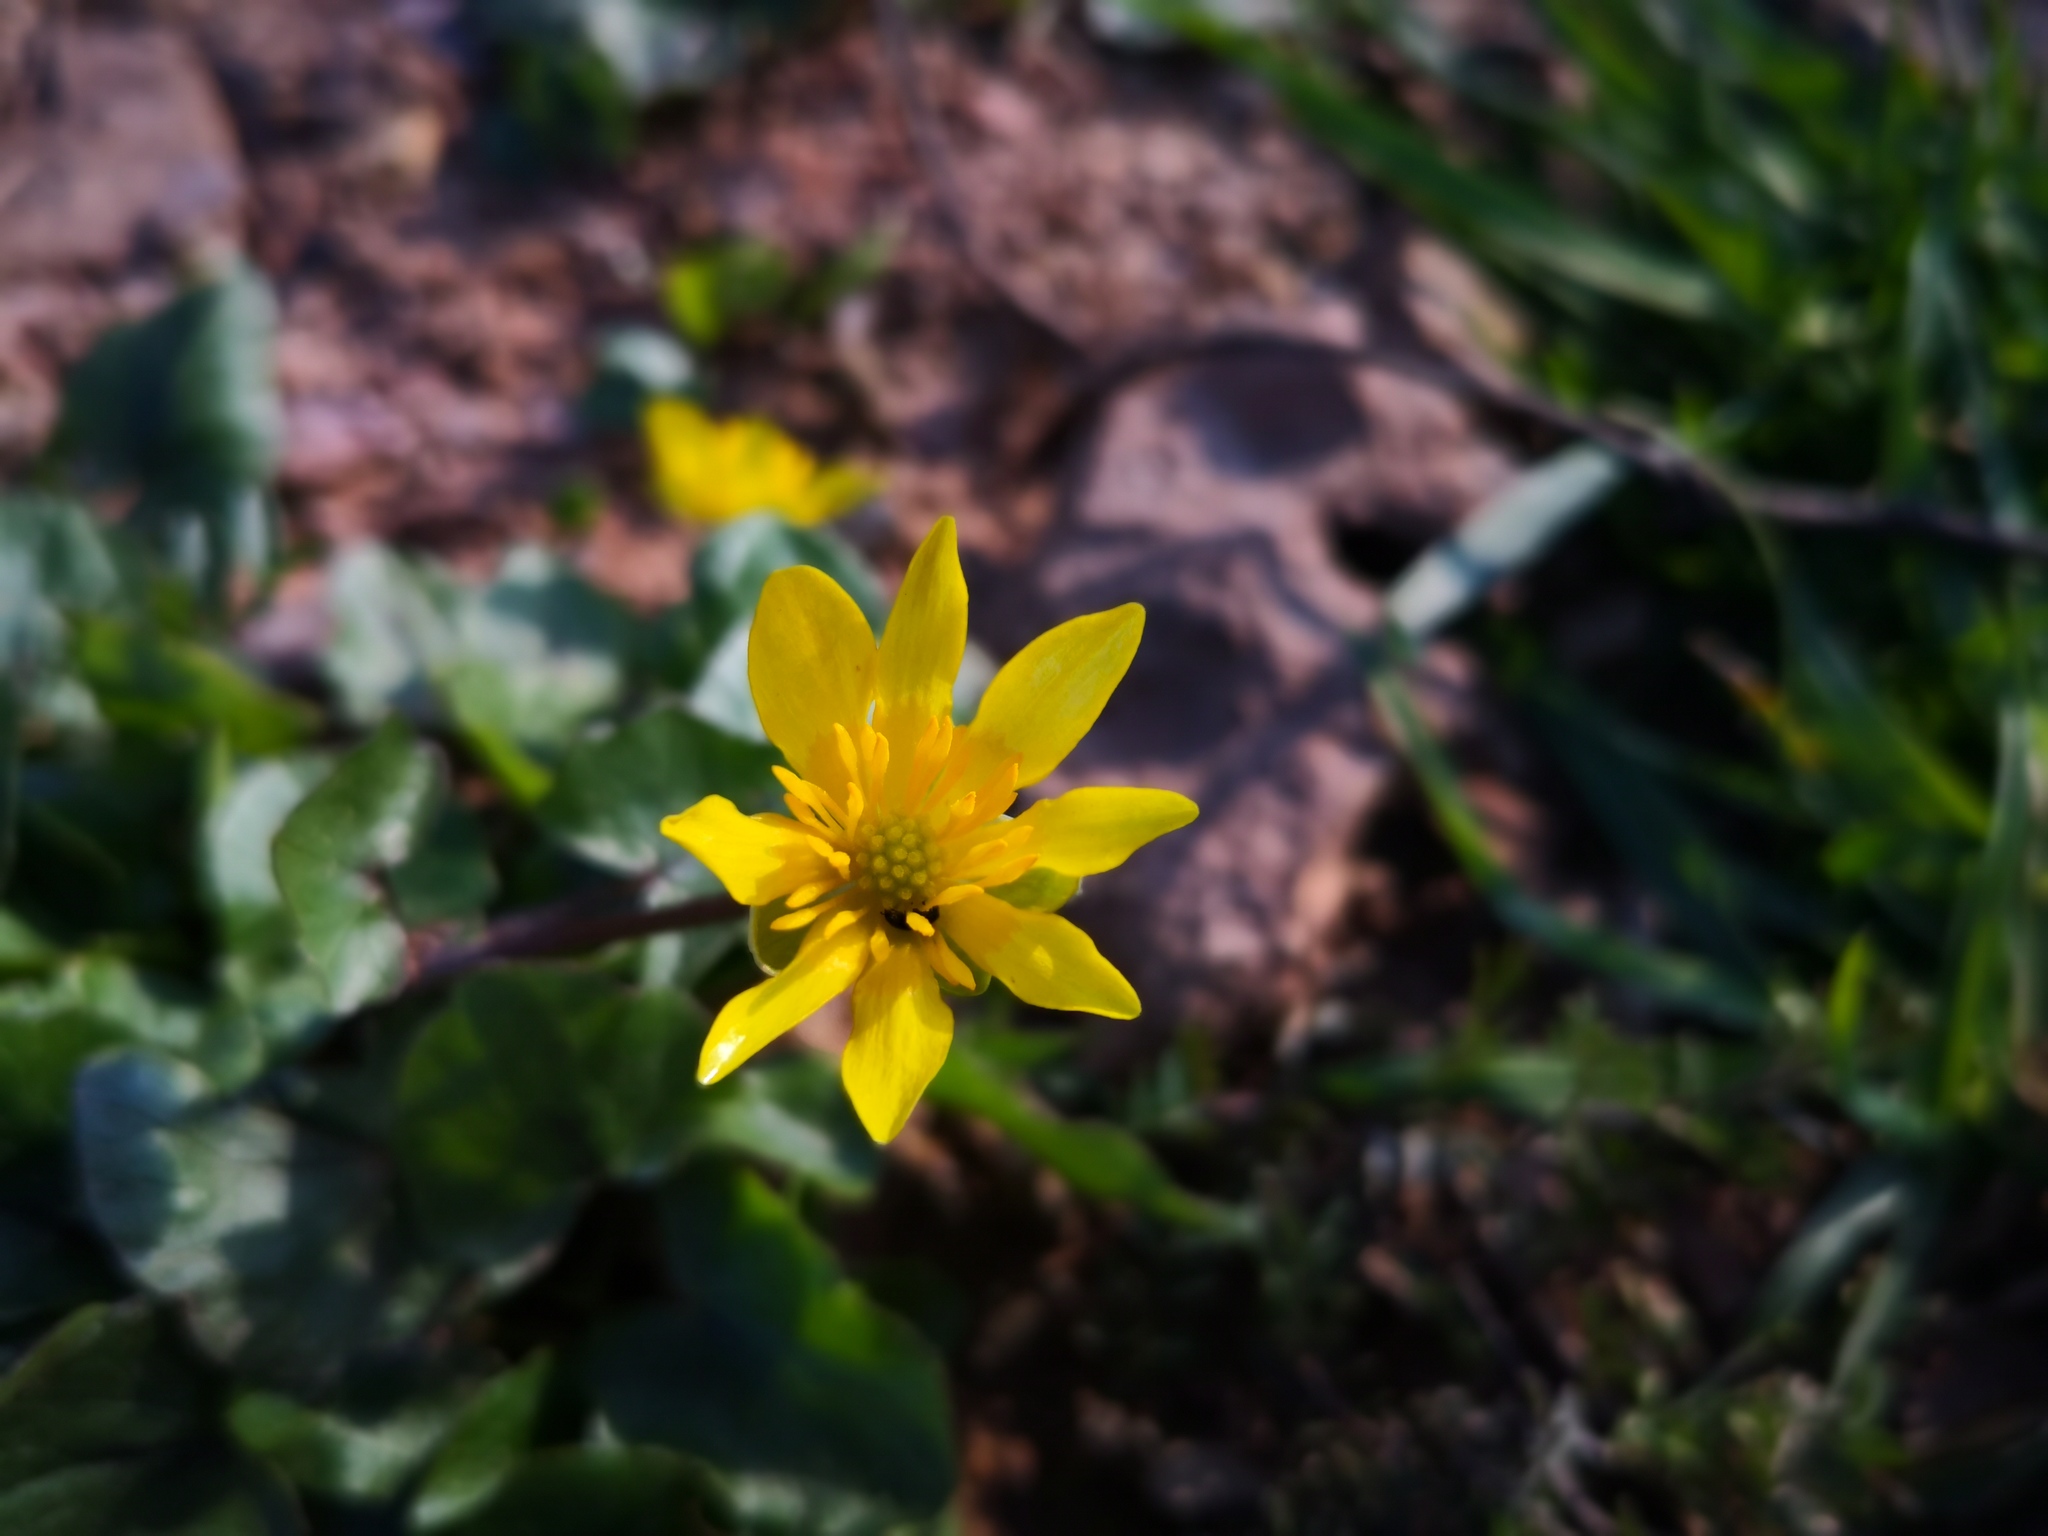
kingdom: Plantae
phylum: Tracheophyta
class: Magnoliopsida
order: Ranunculales
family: Ranunculaceae
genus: Ficaria
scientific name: Ficaria verna
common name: Lesser celandine
